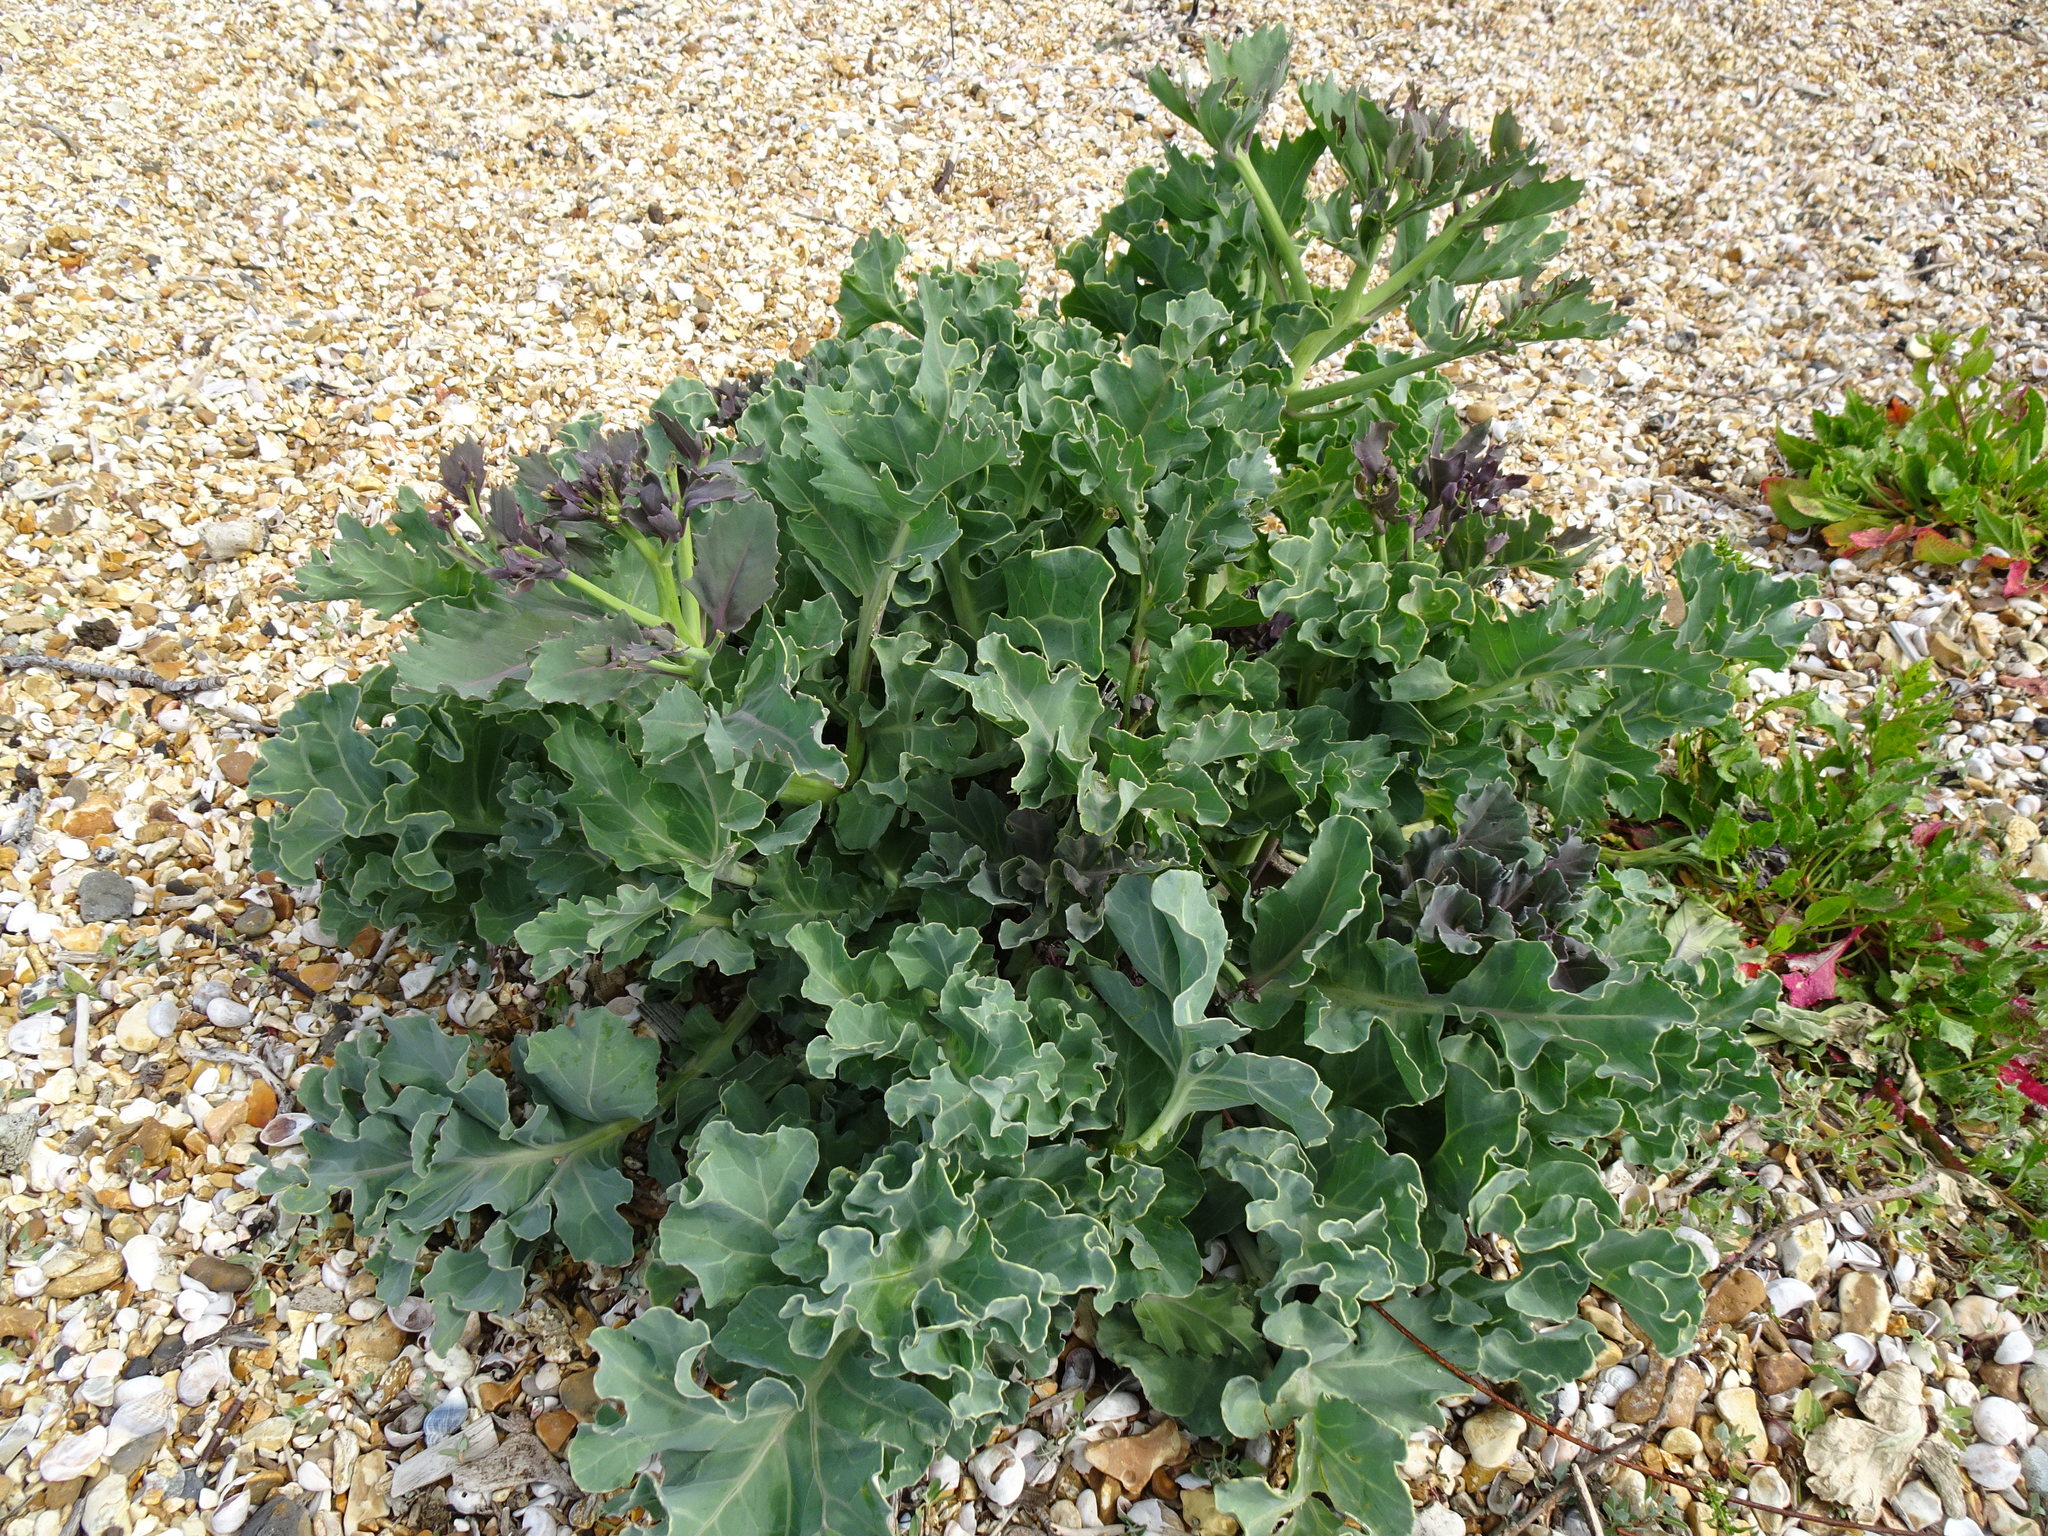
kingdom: Plantae
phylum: Tracheophyta
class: Magnoliopsida
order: Brassicales
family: Brassicaceae
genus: Crambe
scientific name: Crambe maritima
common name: Sea-kale
